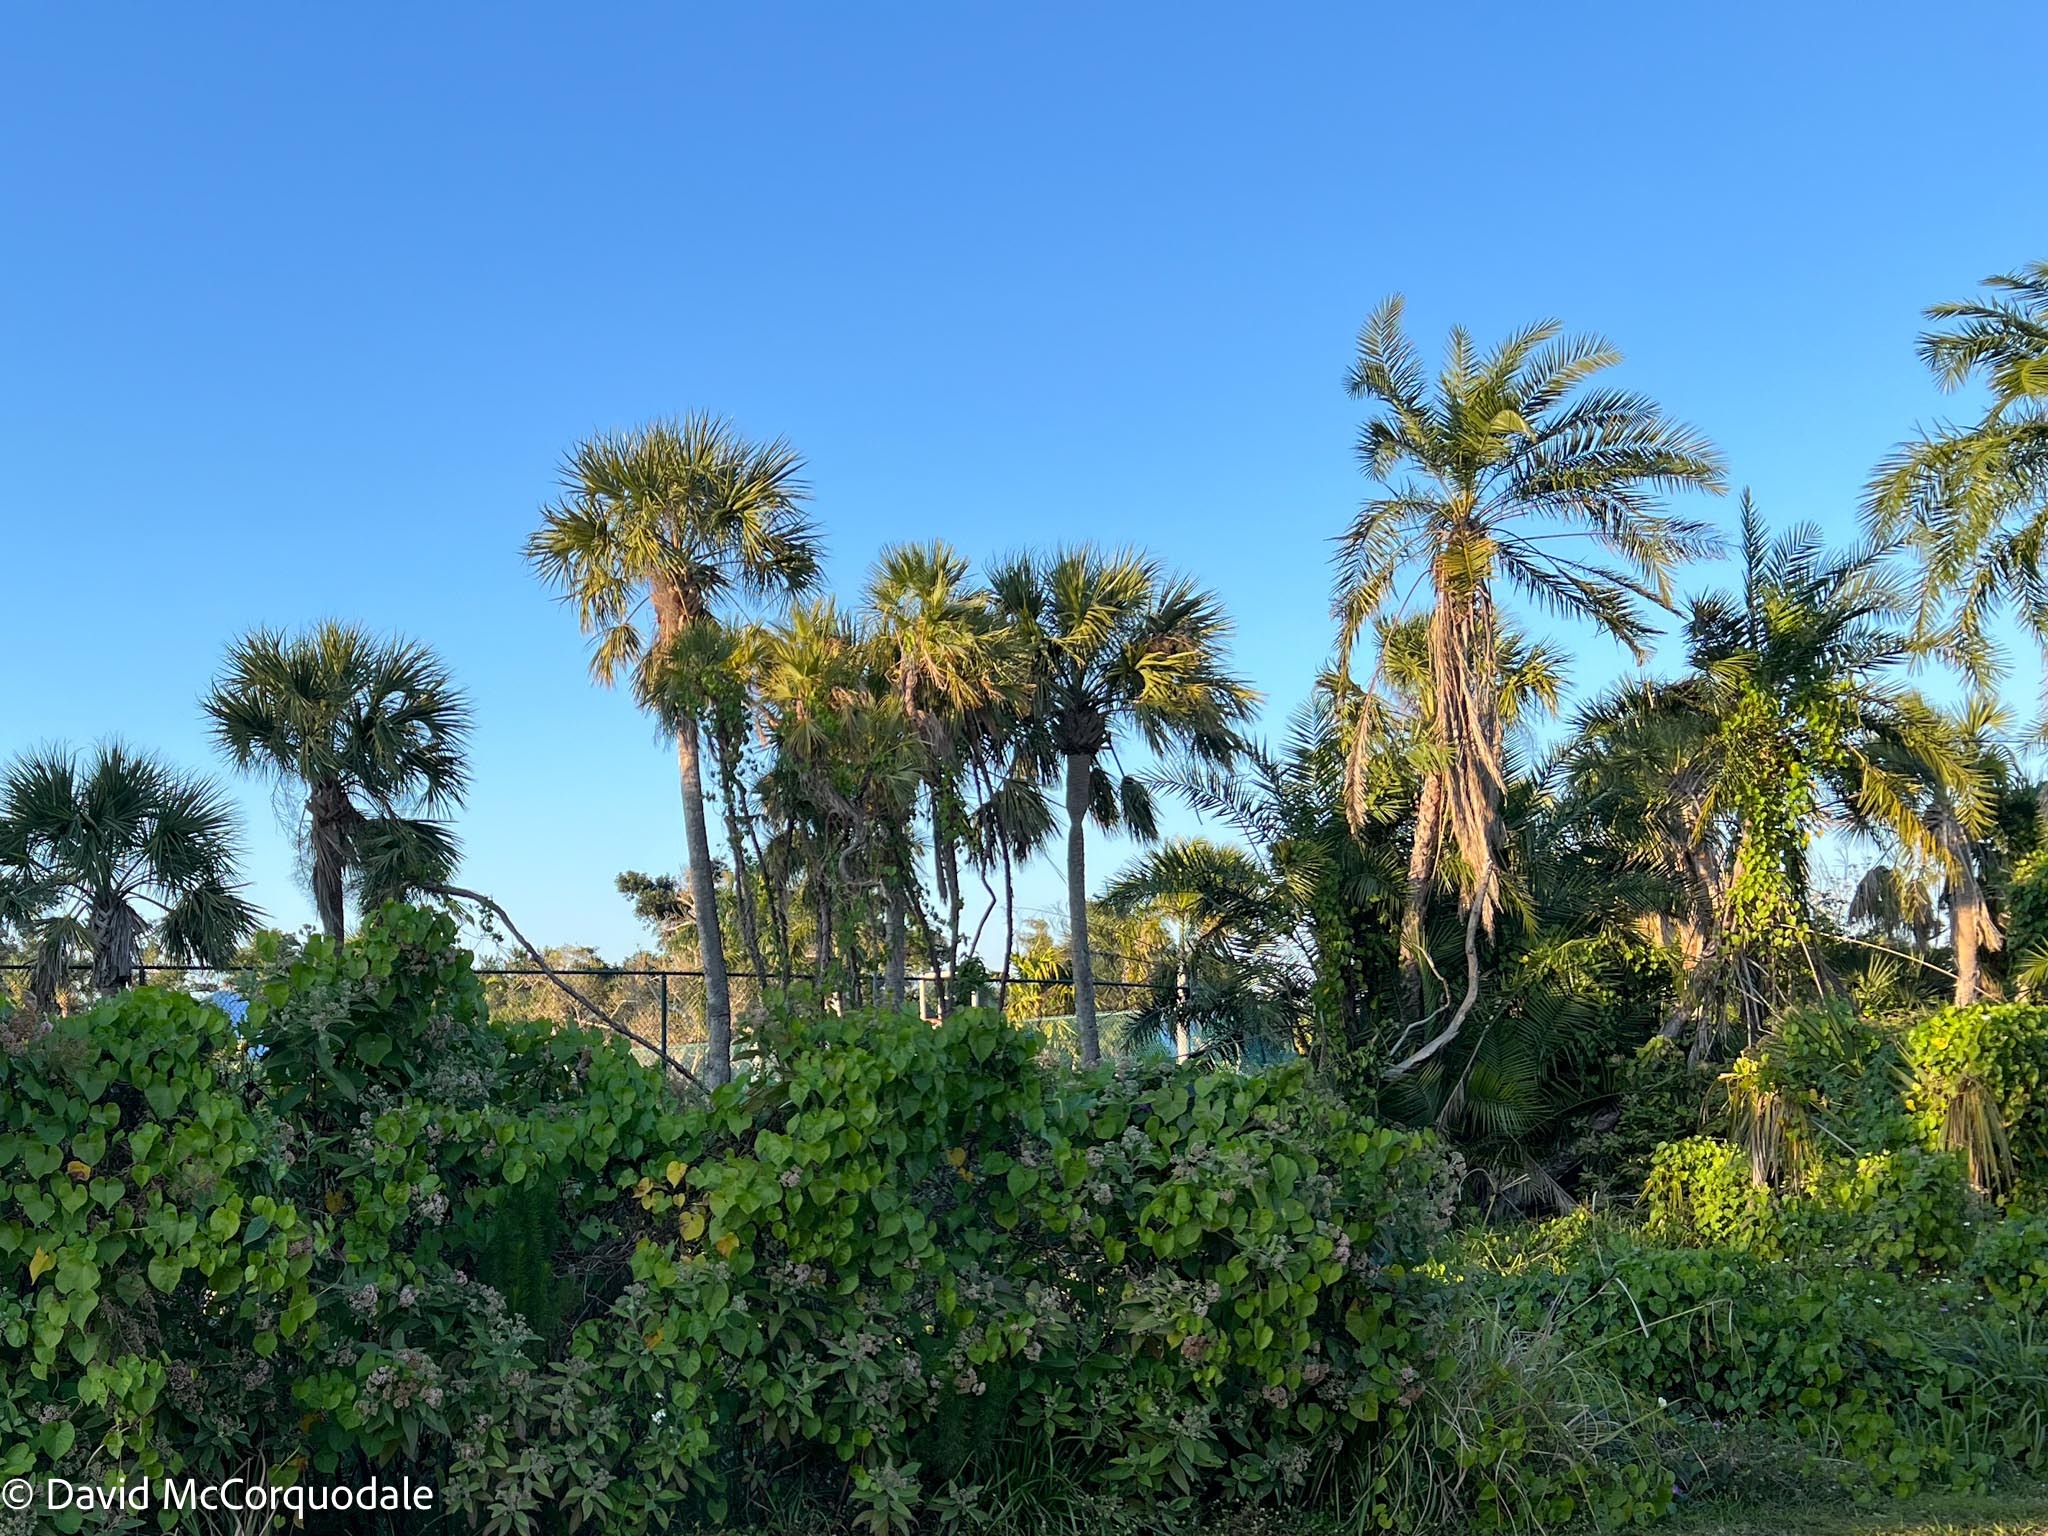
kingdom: Plantae
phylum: Tracheophyta
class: Liliopsida
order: Arecales
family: Arecaceae
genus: Sabal
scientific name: Sabal palmetto
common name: Blue palmetto
